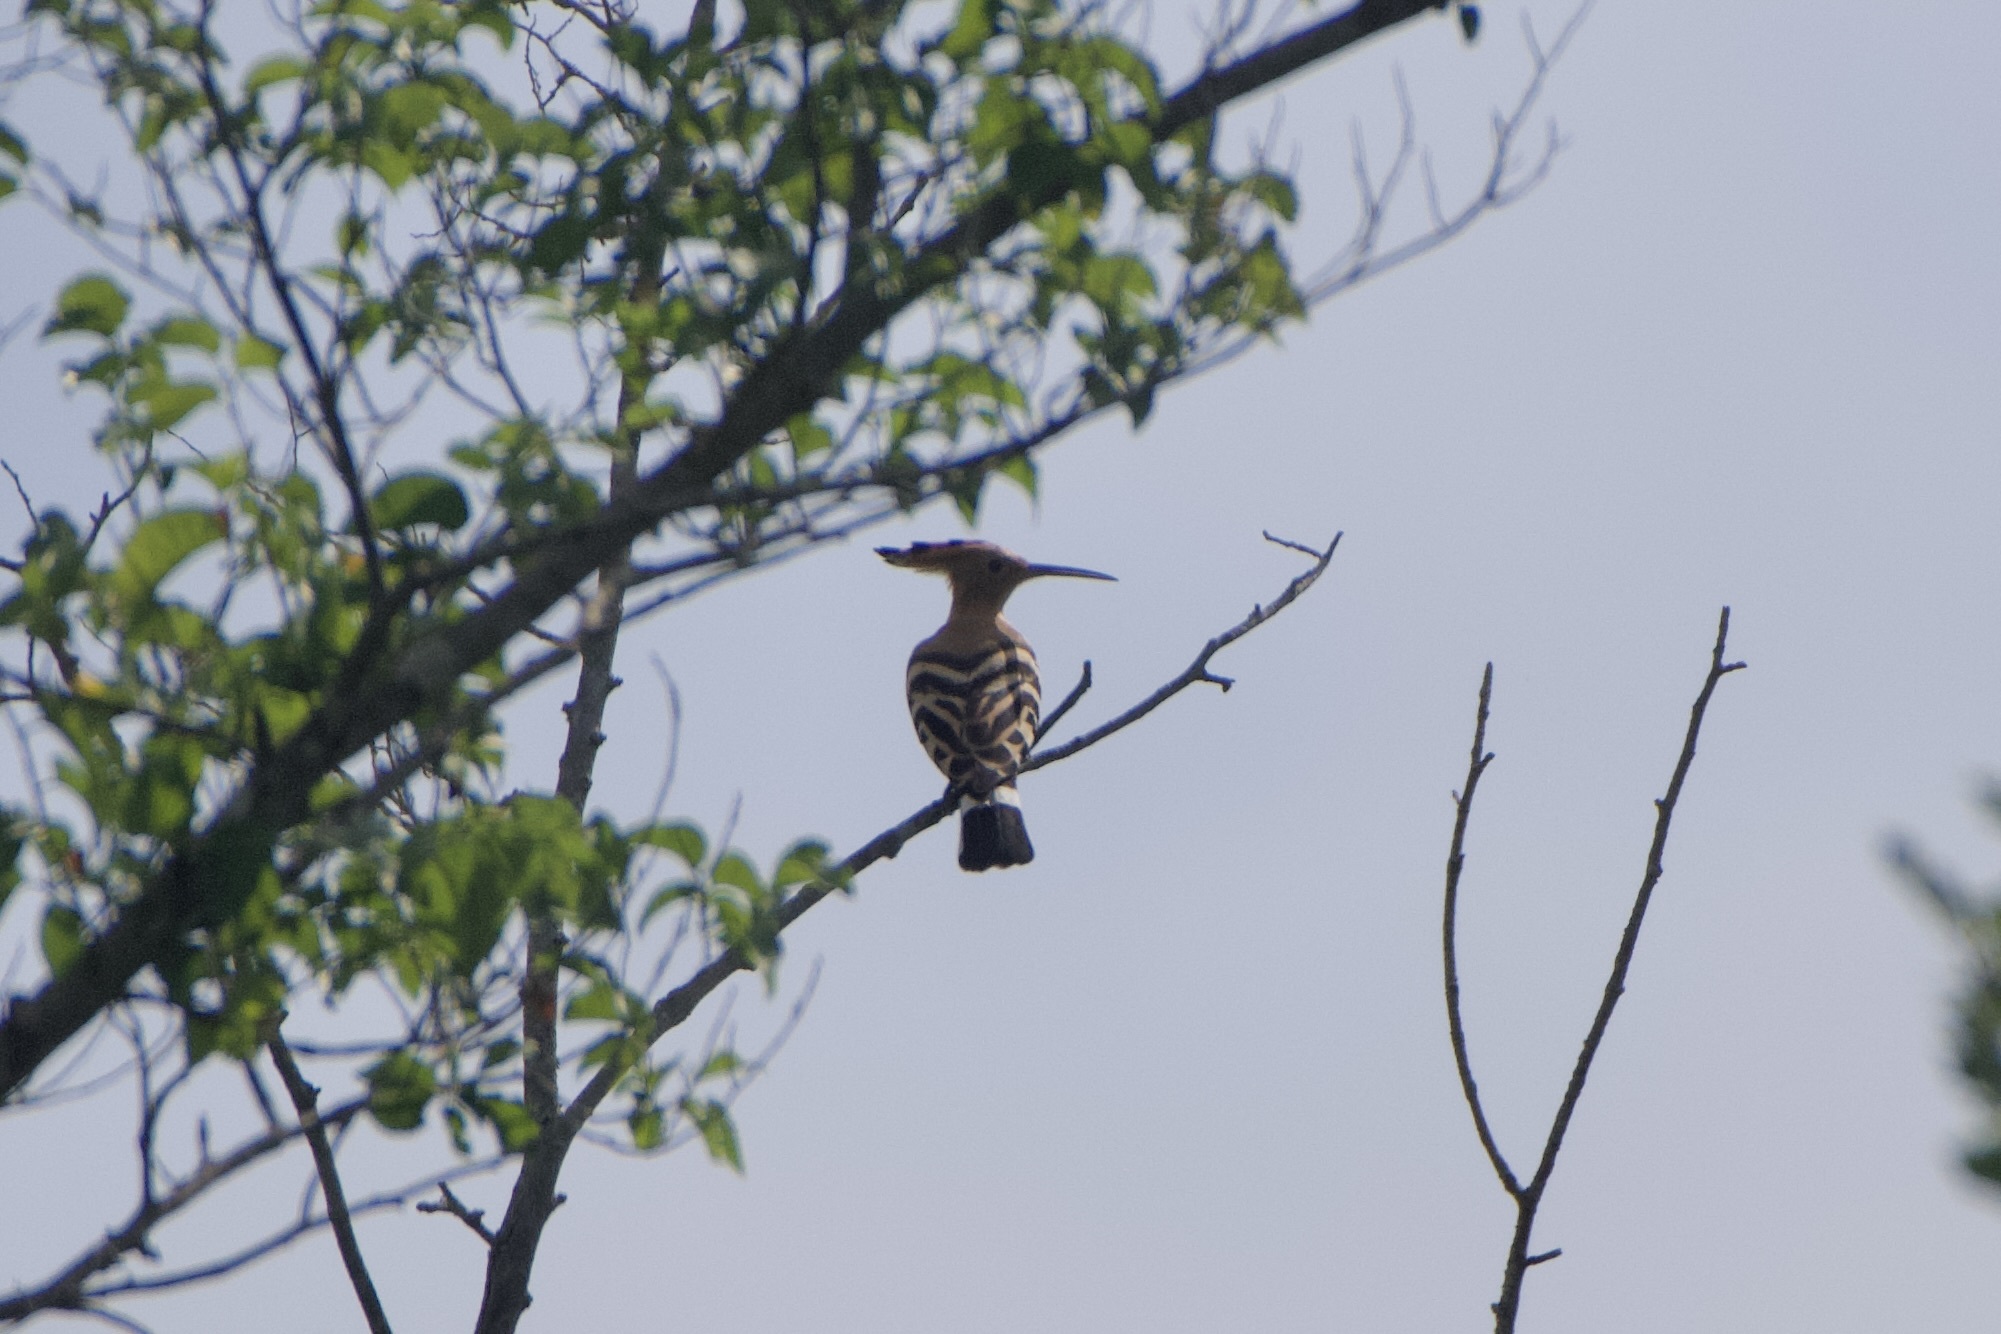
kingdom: Animalia
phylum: Chordata
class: Aves
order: Bucerotiformes
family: Upupidae
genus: Upupa
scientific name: Upupa epops
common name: Eurasian hoopoe
